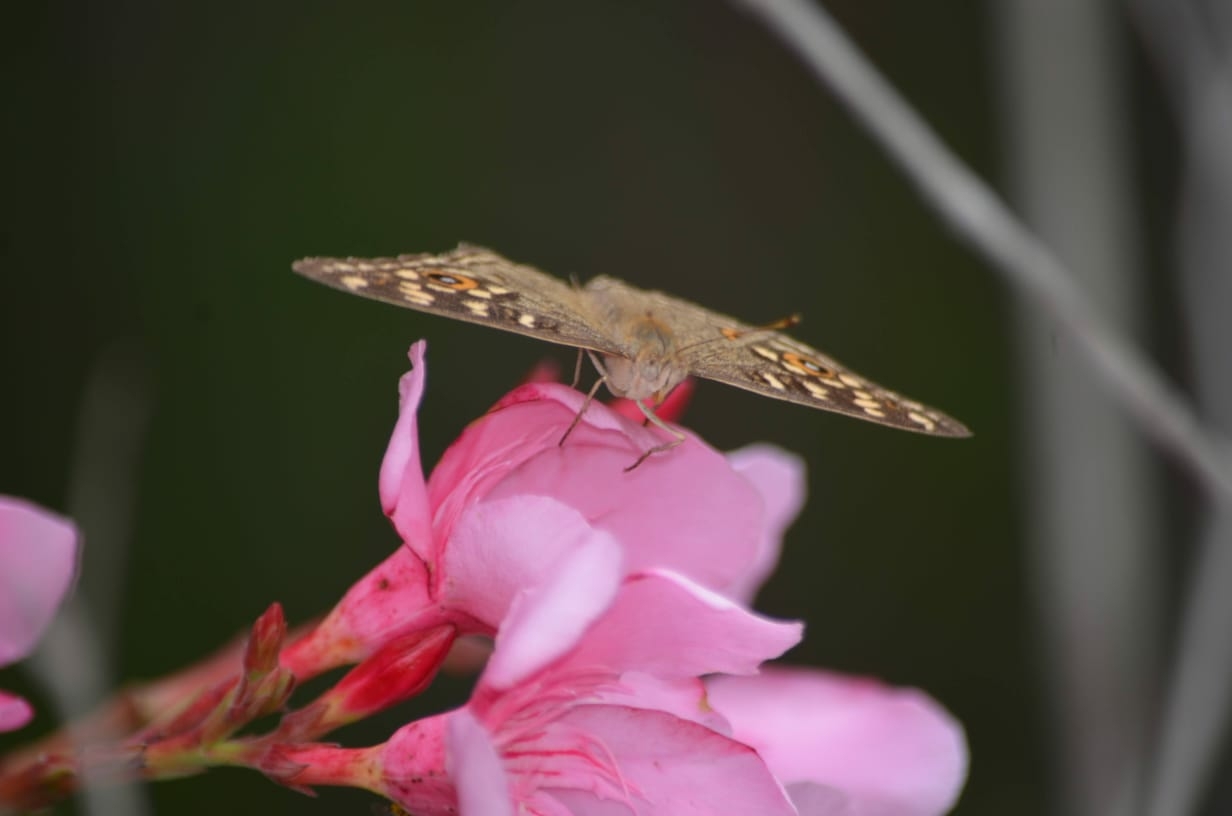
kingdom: Animalia
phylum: Arthropoda
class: Insecta
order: Lepidoptera
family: Nymphalidae
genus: Junonia
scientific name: Junonia lemonias
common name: Lemon pansy
